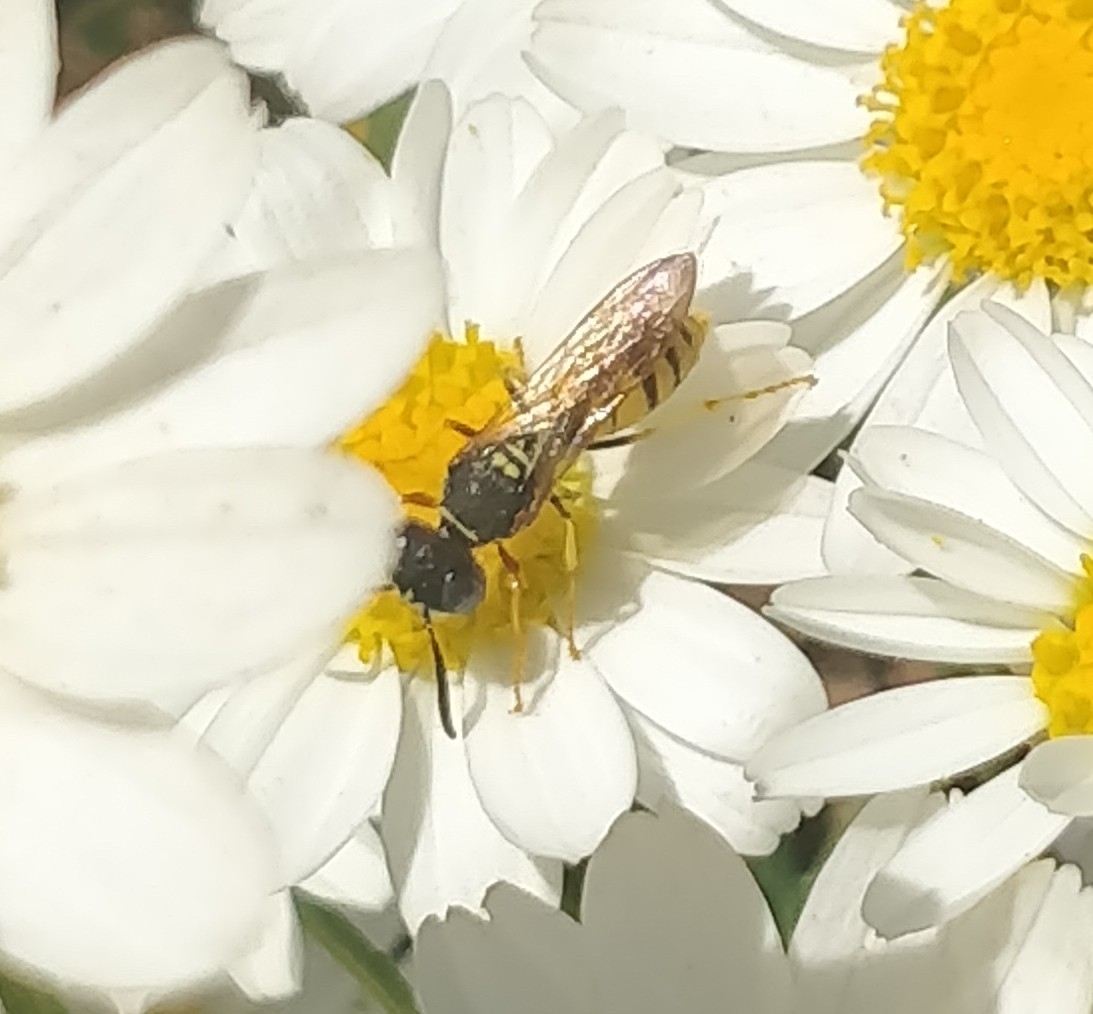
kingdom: Animalia
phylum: Arthropoda
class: Insecta
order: Hymenoptera
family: Crabronidae
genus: Philanthus
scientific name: Philanthus triangulum
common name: Bee wolf
